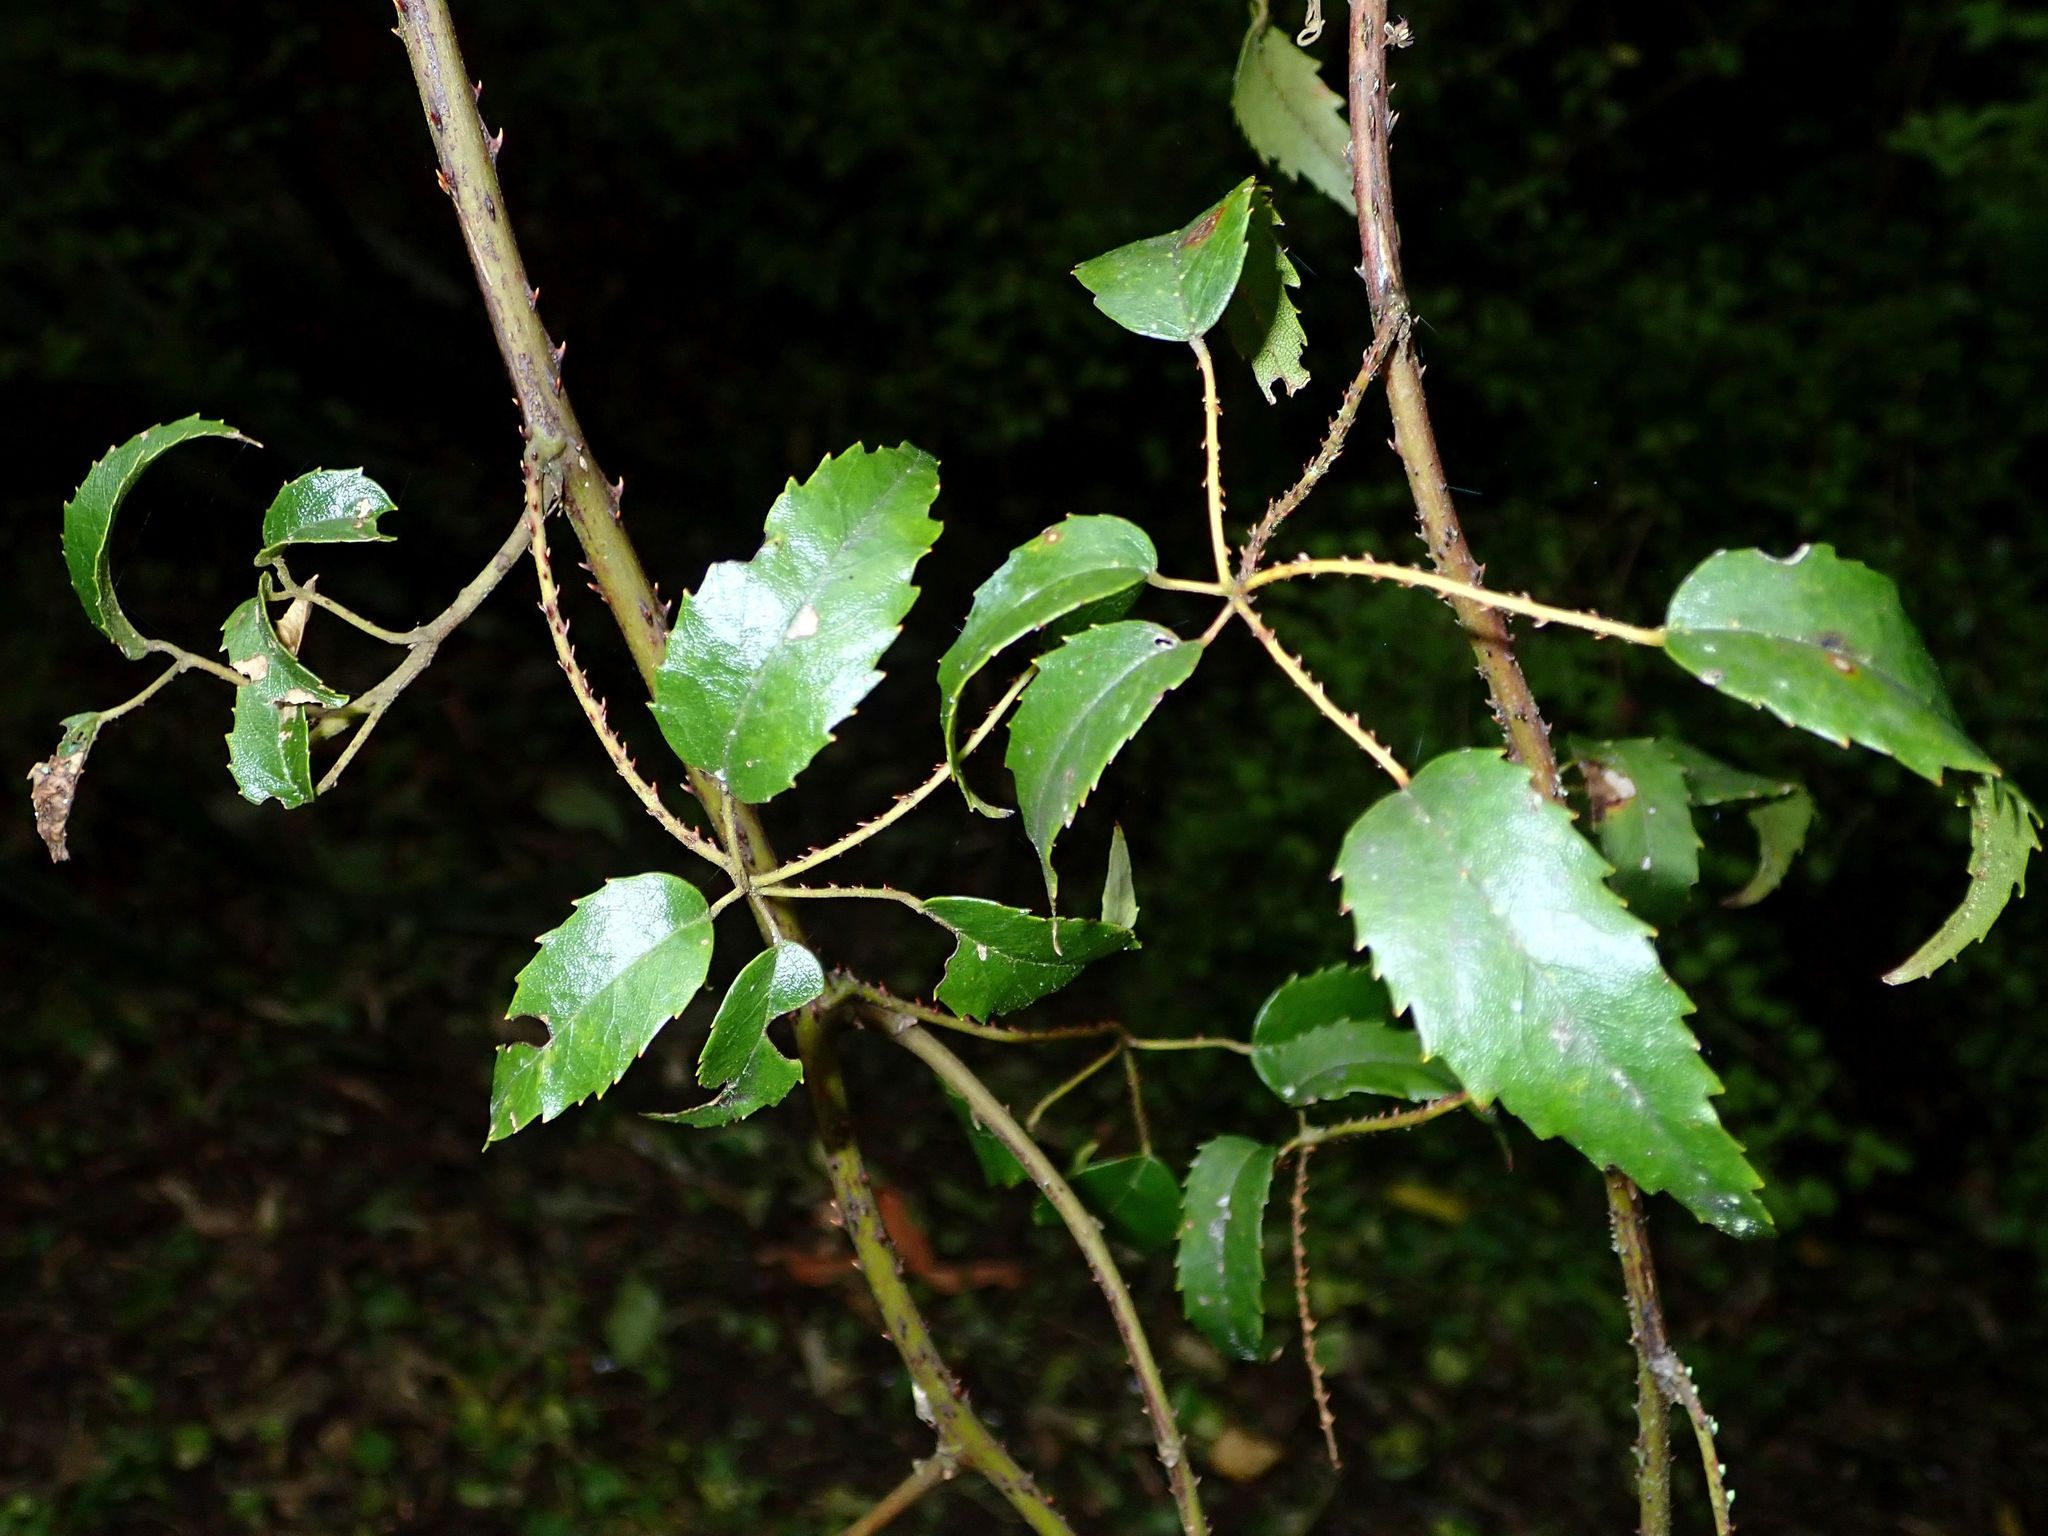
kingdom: Plantae
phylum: Tracheophyta
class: Magnoliopsida
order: Rosales
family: Rosaceae
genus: Rubus
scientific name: Rubus schmidelioides
